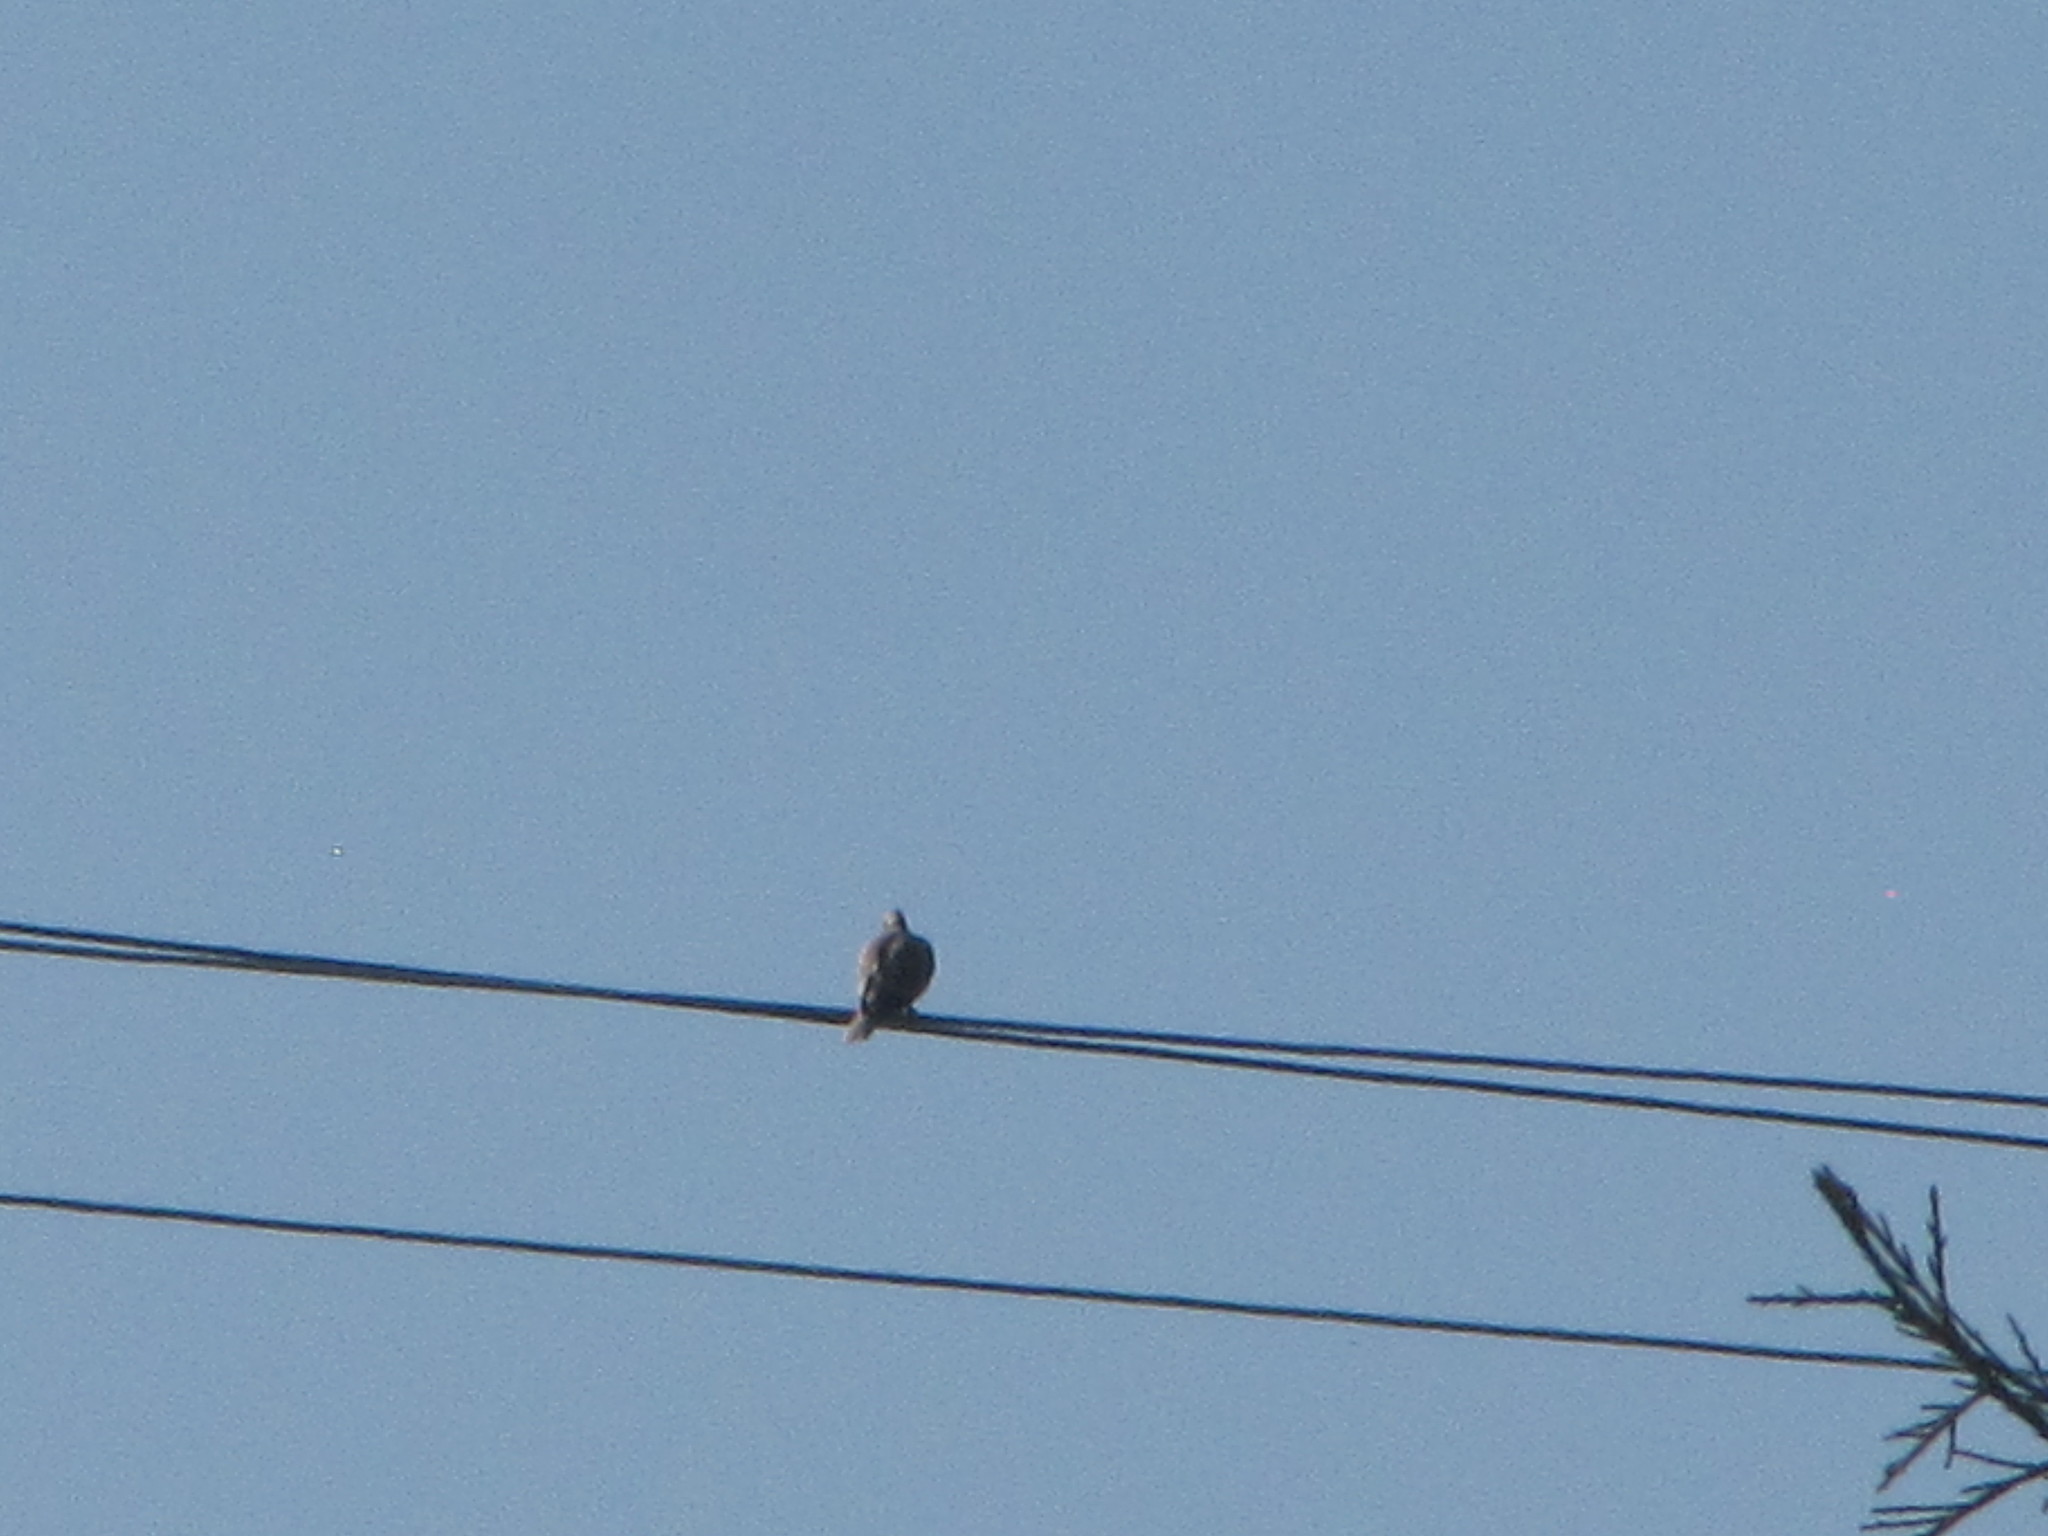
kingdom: Animalia
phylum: Chordata
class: Aves
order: Columbiformes
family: Columbidae
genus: Streptopelia
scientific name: Streptopelia decaocto
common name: Eurasian collared dove
